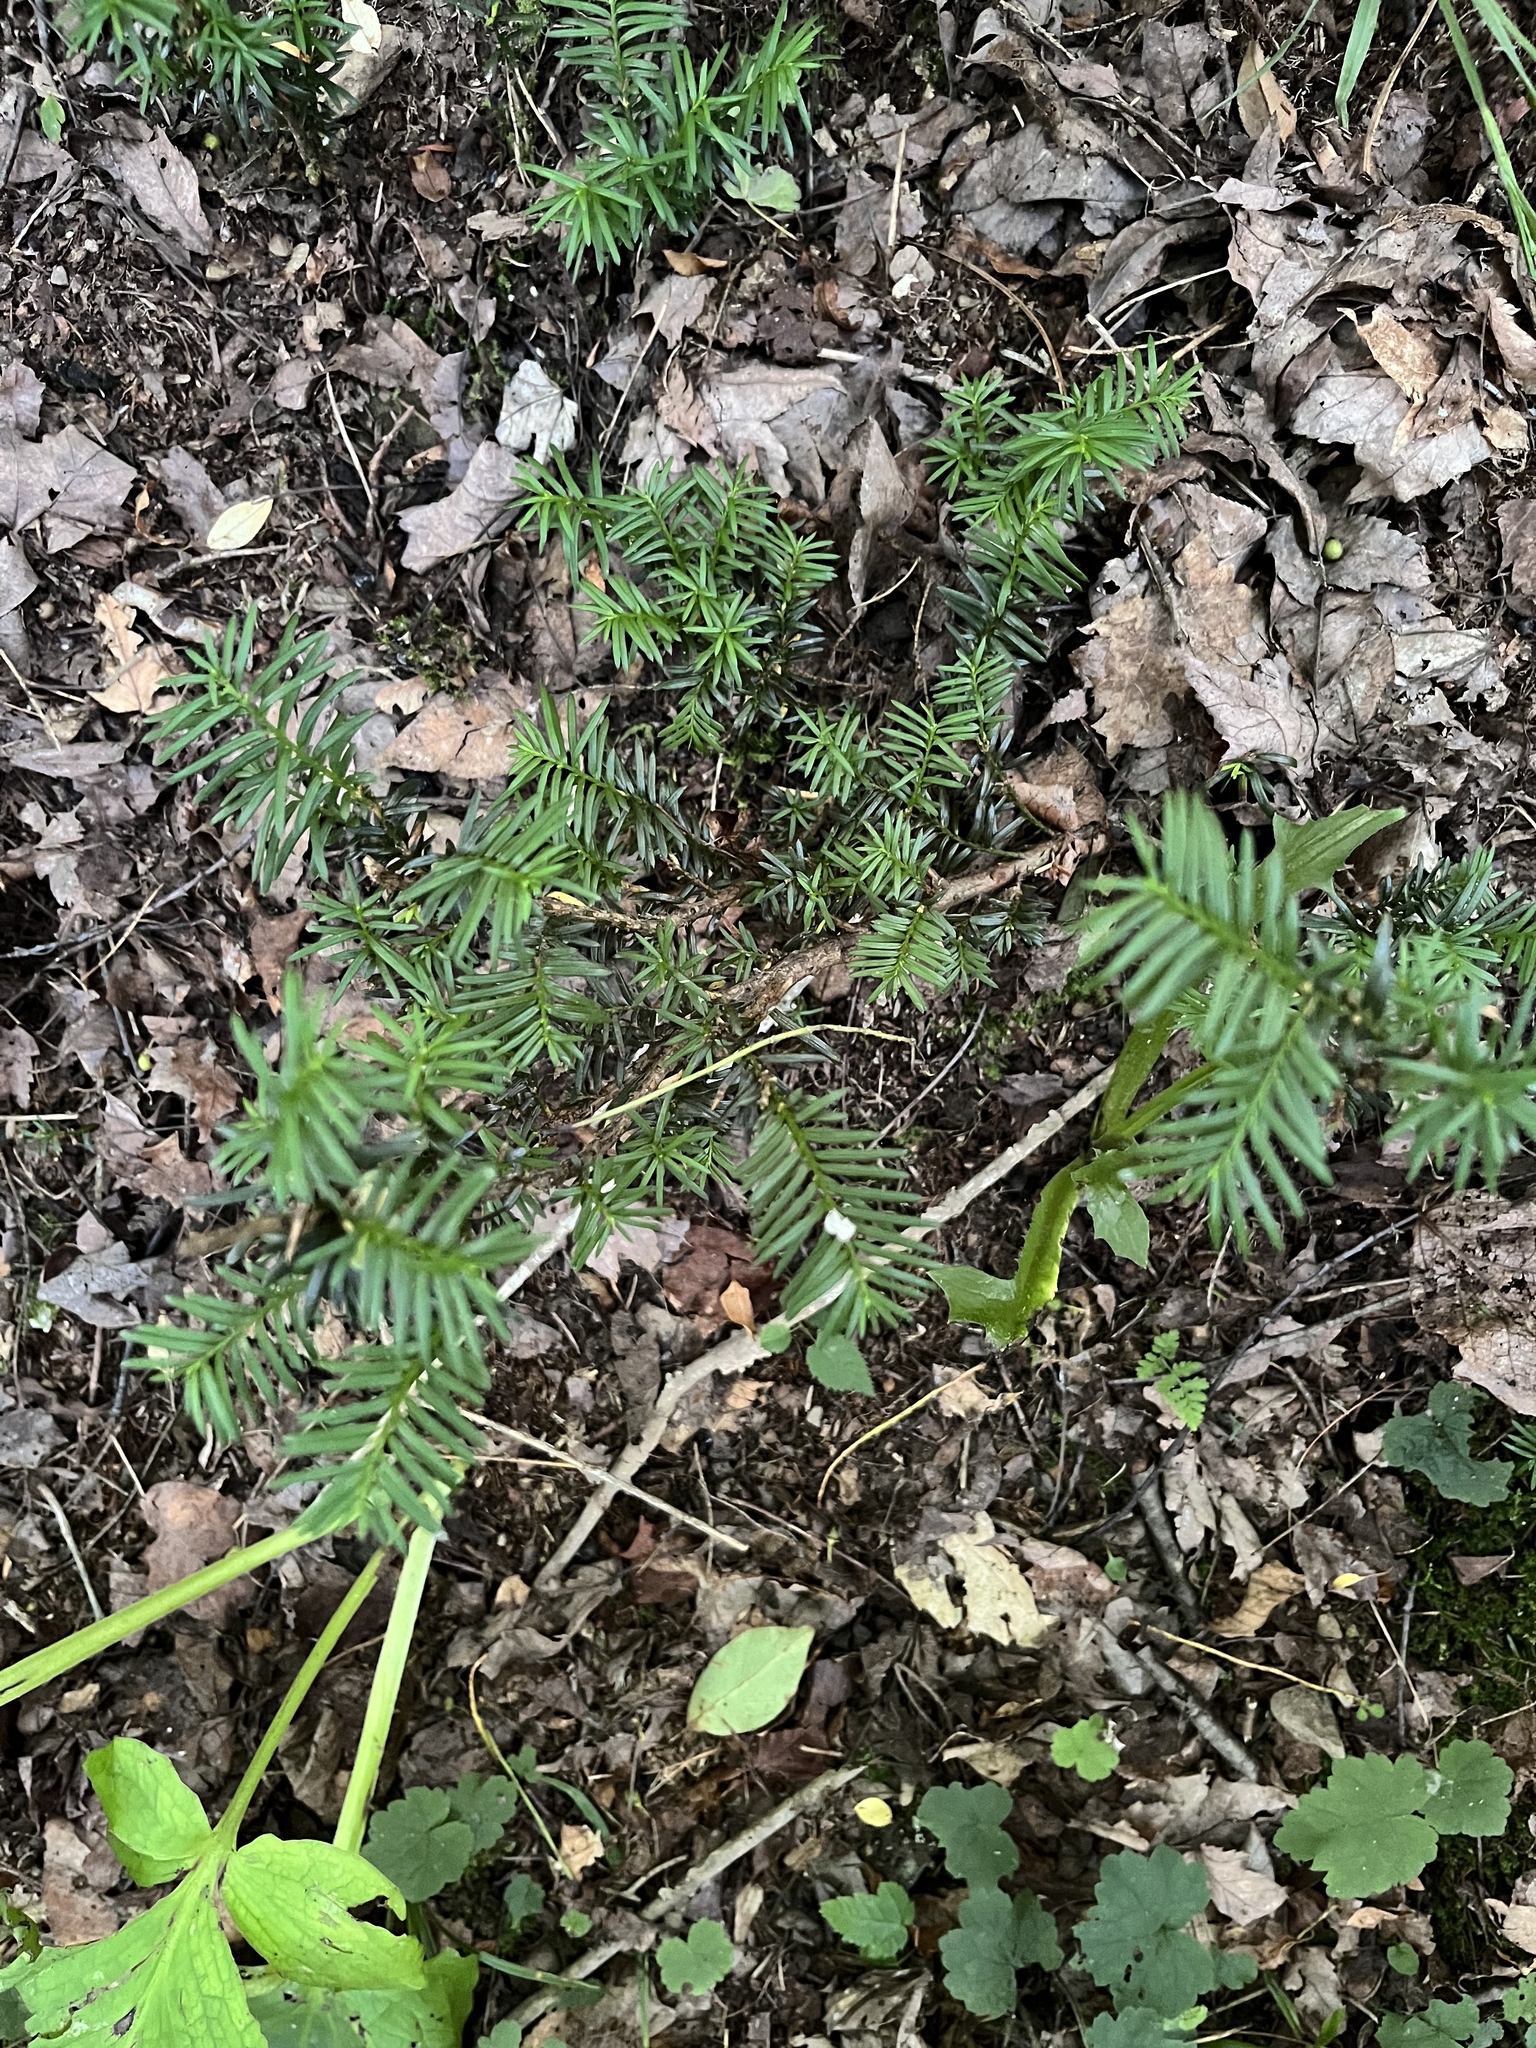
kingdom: Plantae
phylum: Tracheophyta
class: Pinopsida
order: Pinales
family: Taxaceae
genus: Taxus
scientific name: Taxus canadensis
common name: American yew
